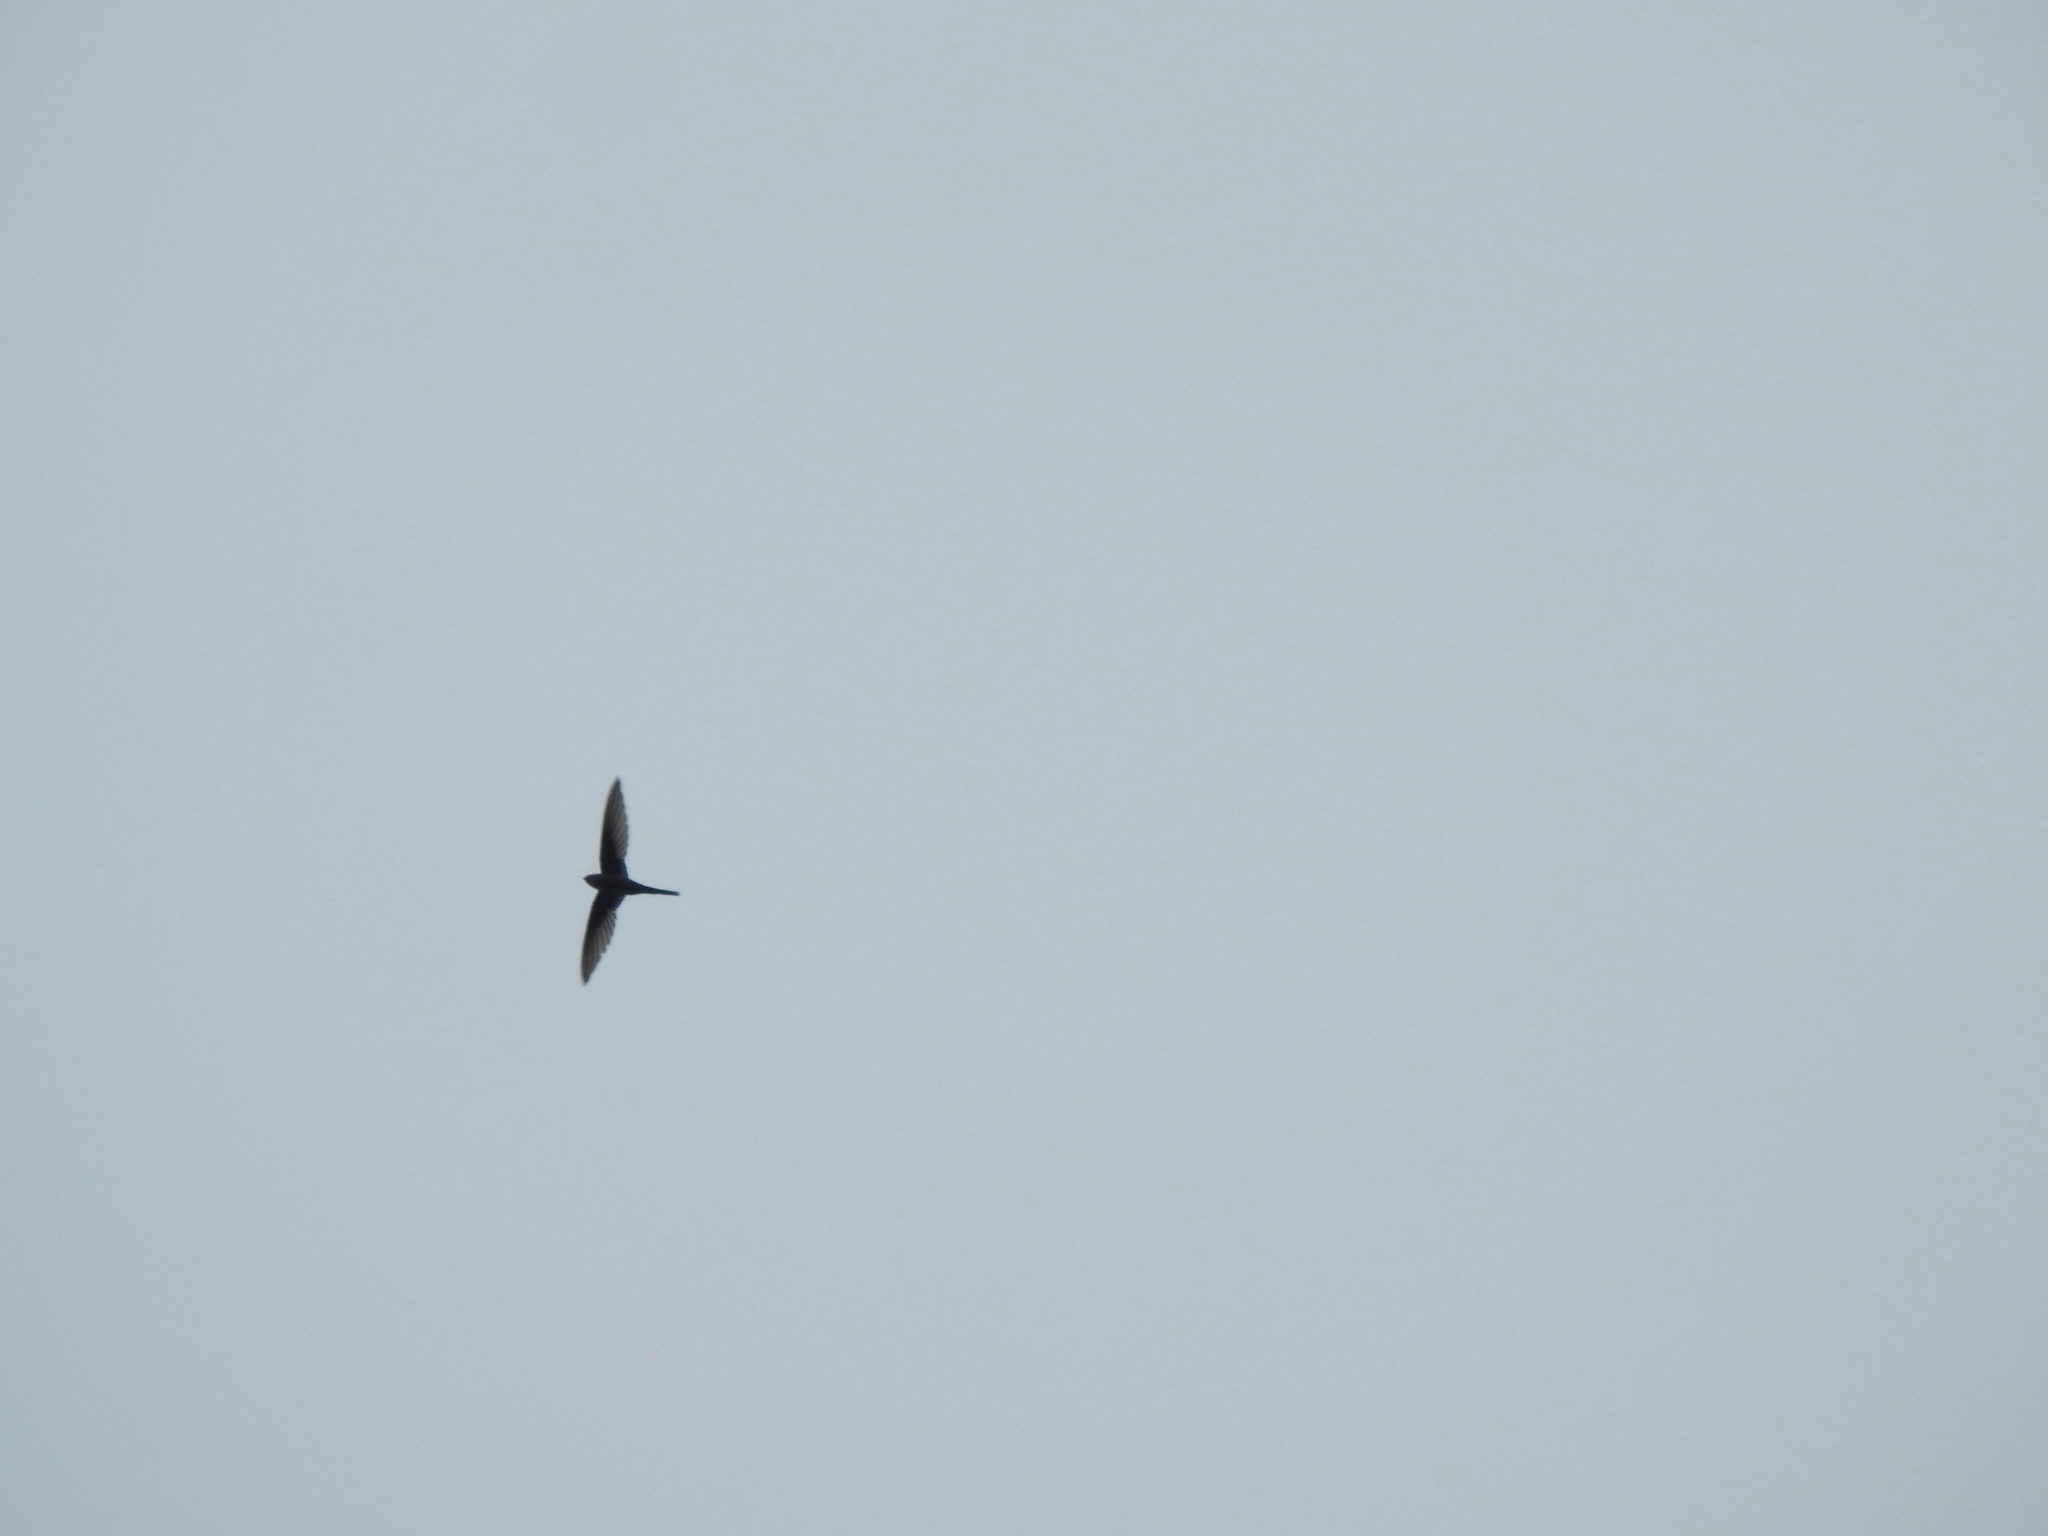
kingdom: Animalia
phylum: Chordata
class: Aves
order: Apodiformes
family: Apodidae
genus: Cypsiurus
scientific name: Cypsiurus balasiensis
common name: Asian palm swift
